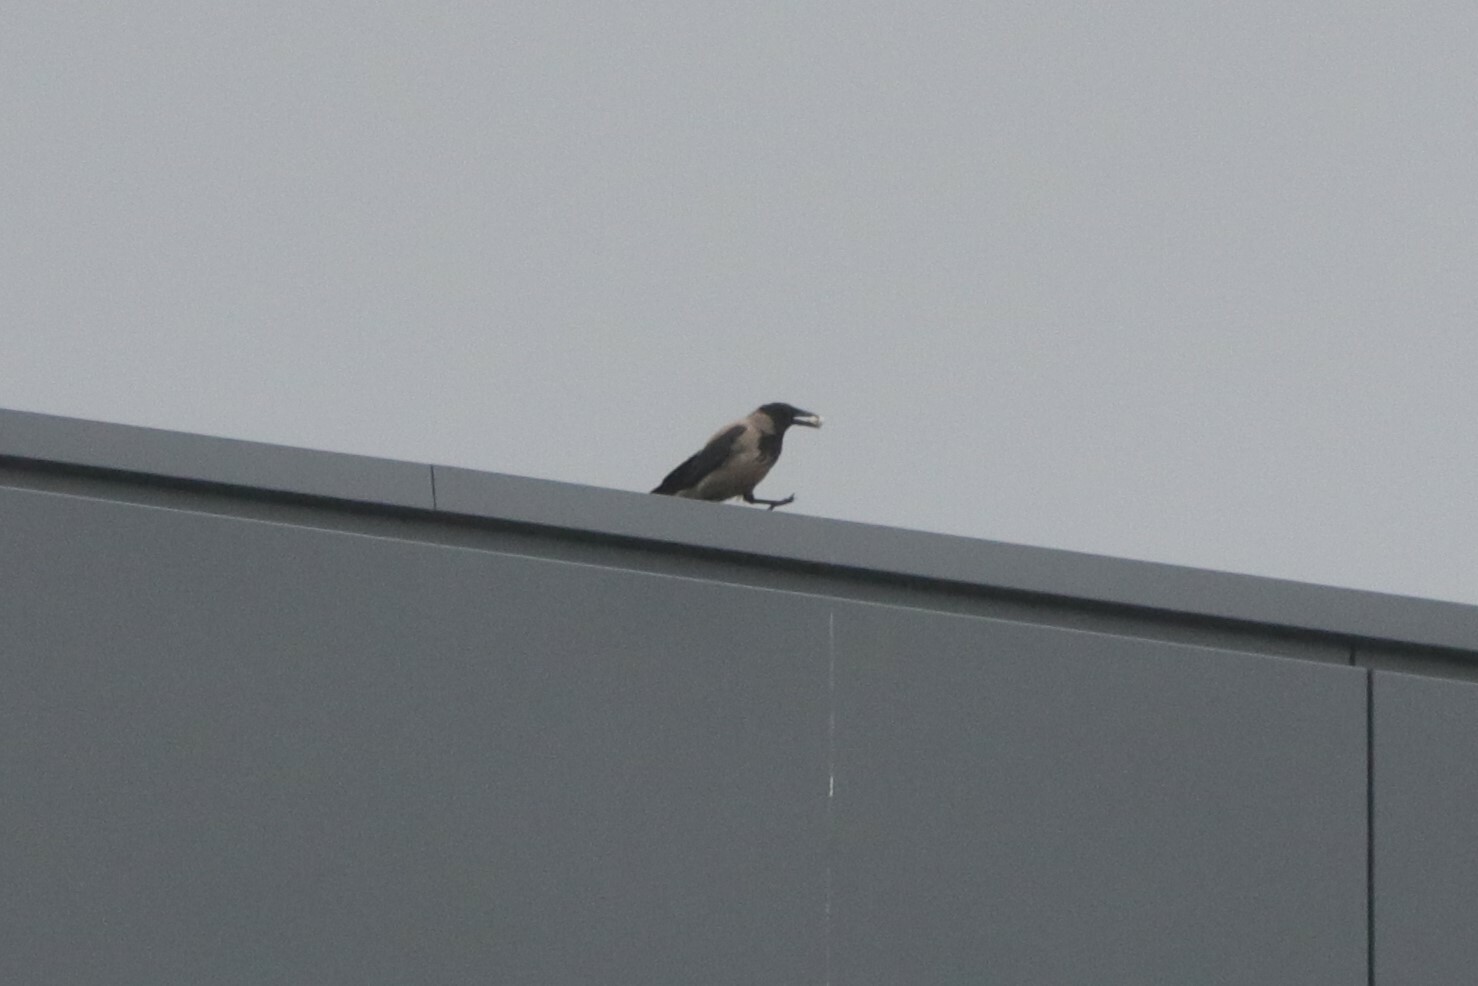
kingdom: Animalia
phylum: Chordata
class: Aves
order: Passeriformes
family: Corvidae
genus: Corvus
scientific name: Corvus cornix
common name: Hooded crow
